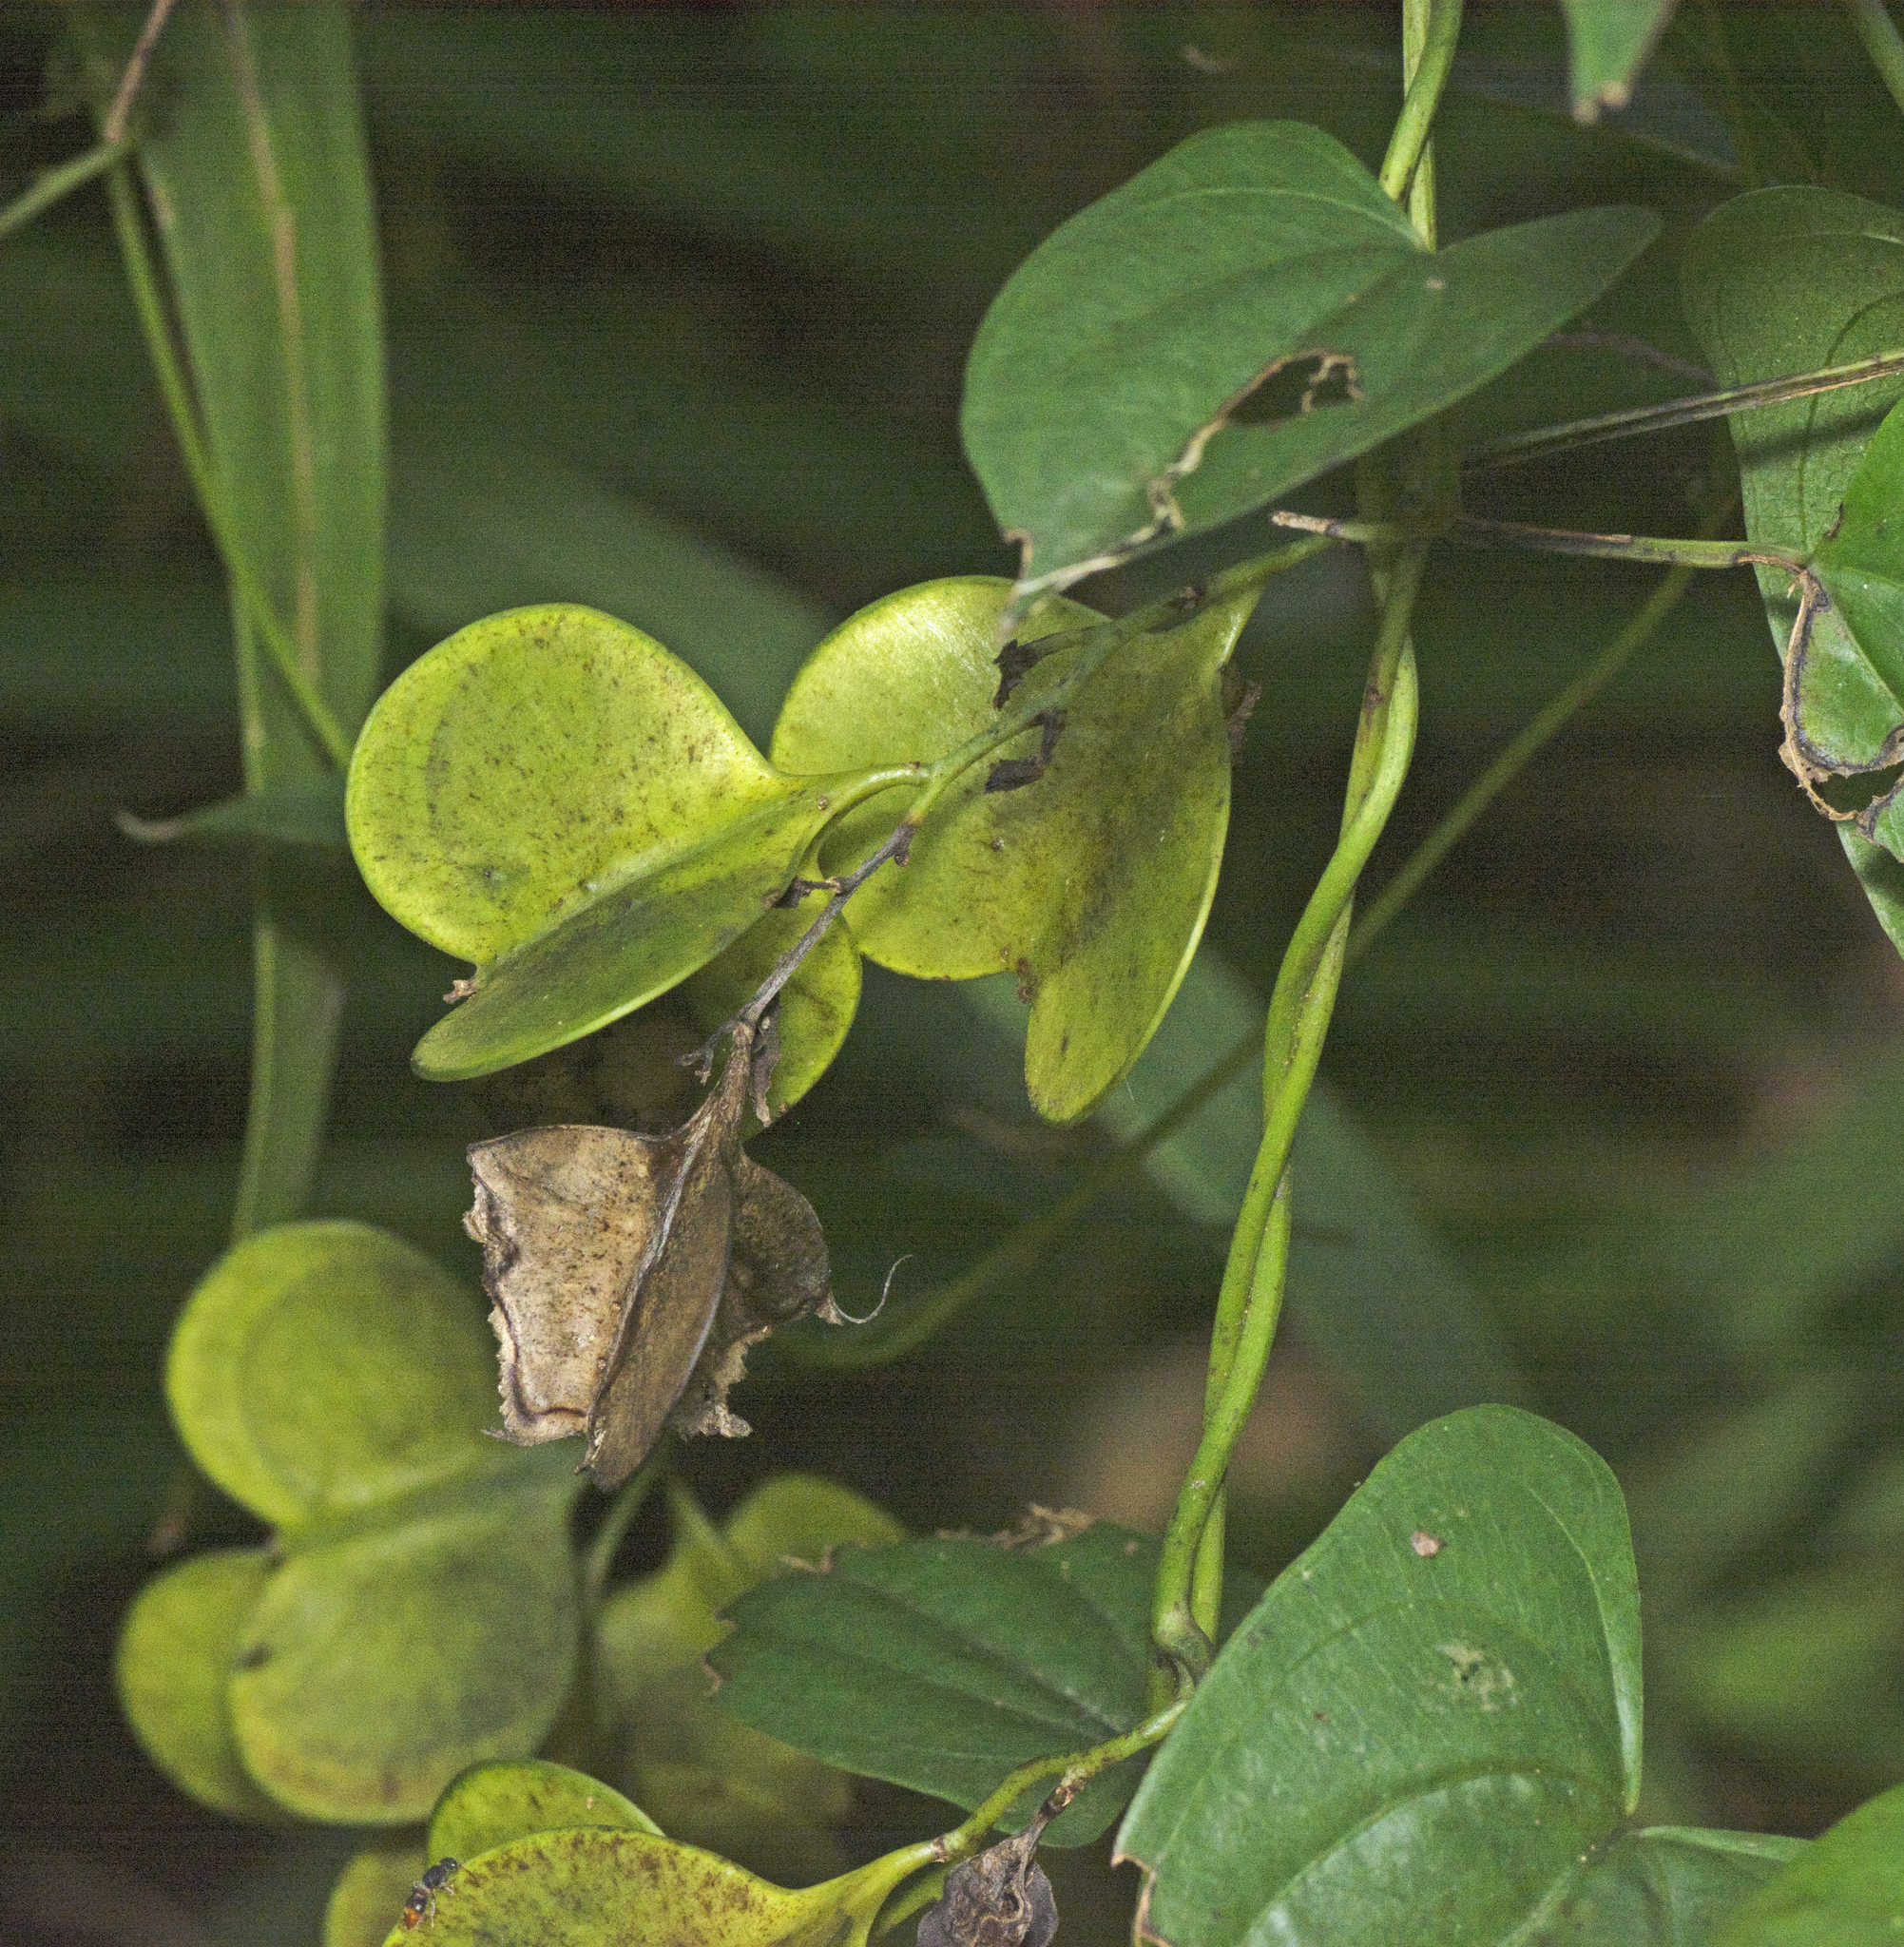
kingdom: Plantae
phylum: Tracheophyta
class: Liliopsida
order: Dioscoreales
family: Dioscoreaceae
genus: Dioscorea
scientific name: Dioscorea transversa
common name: Long yam
